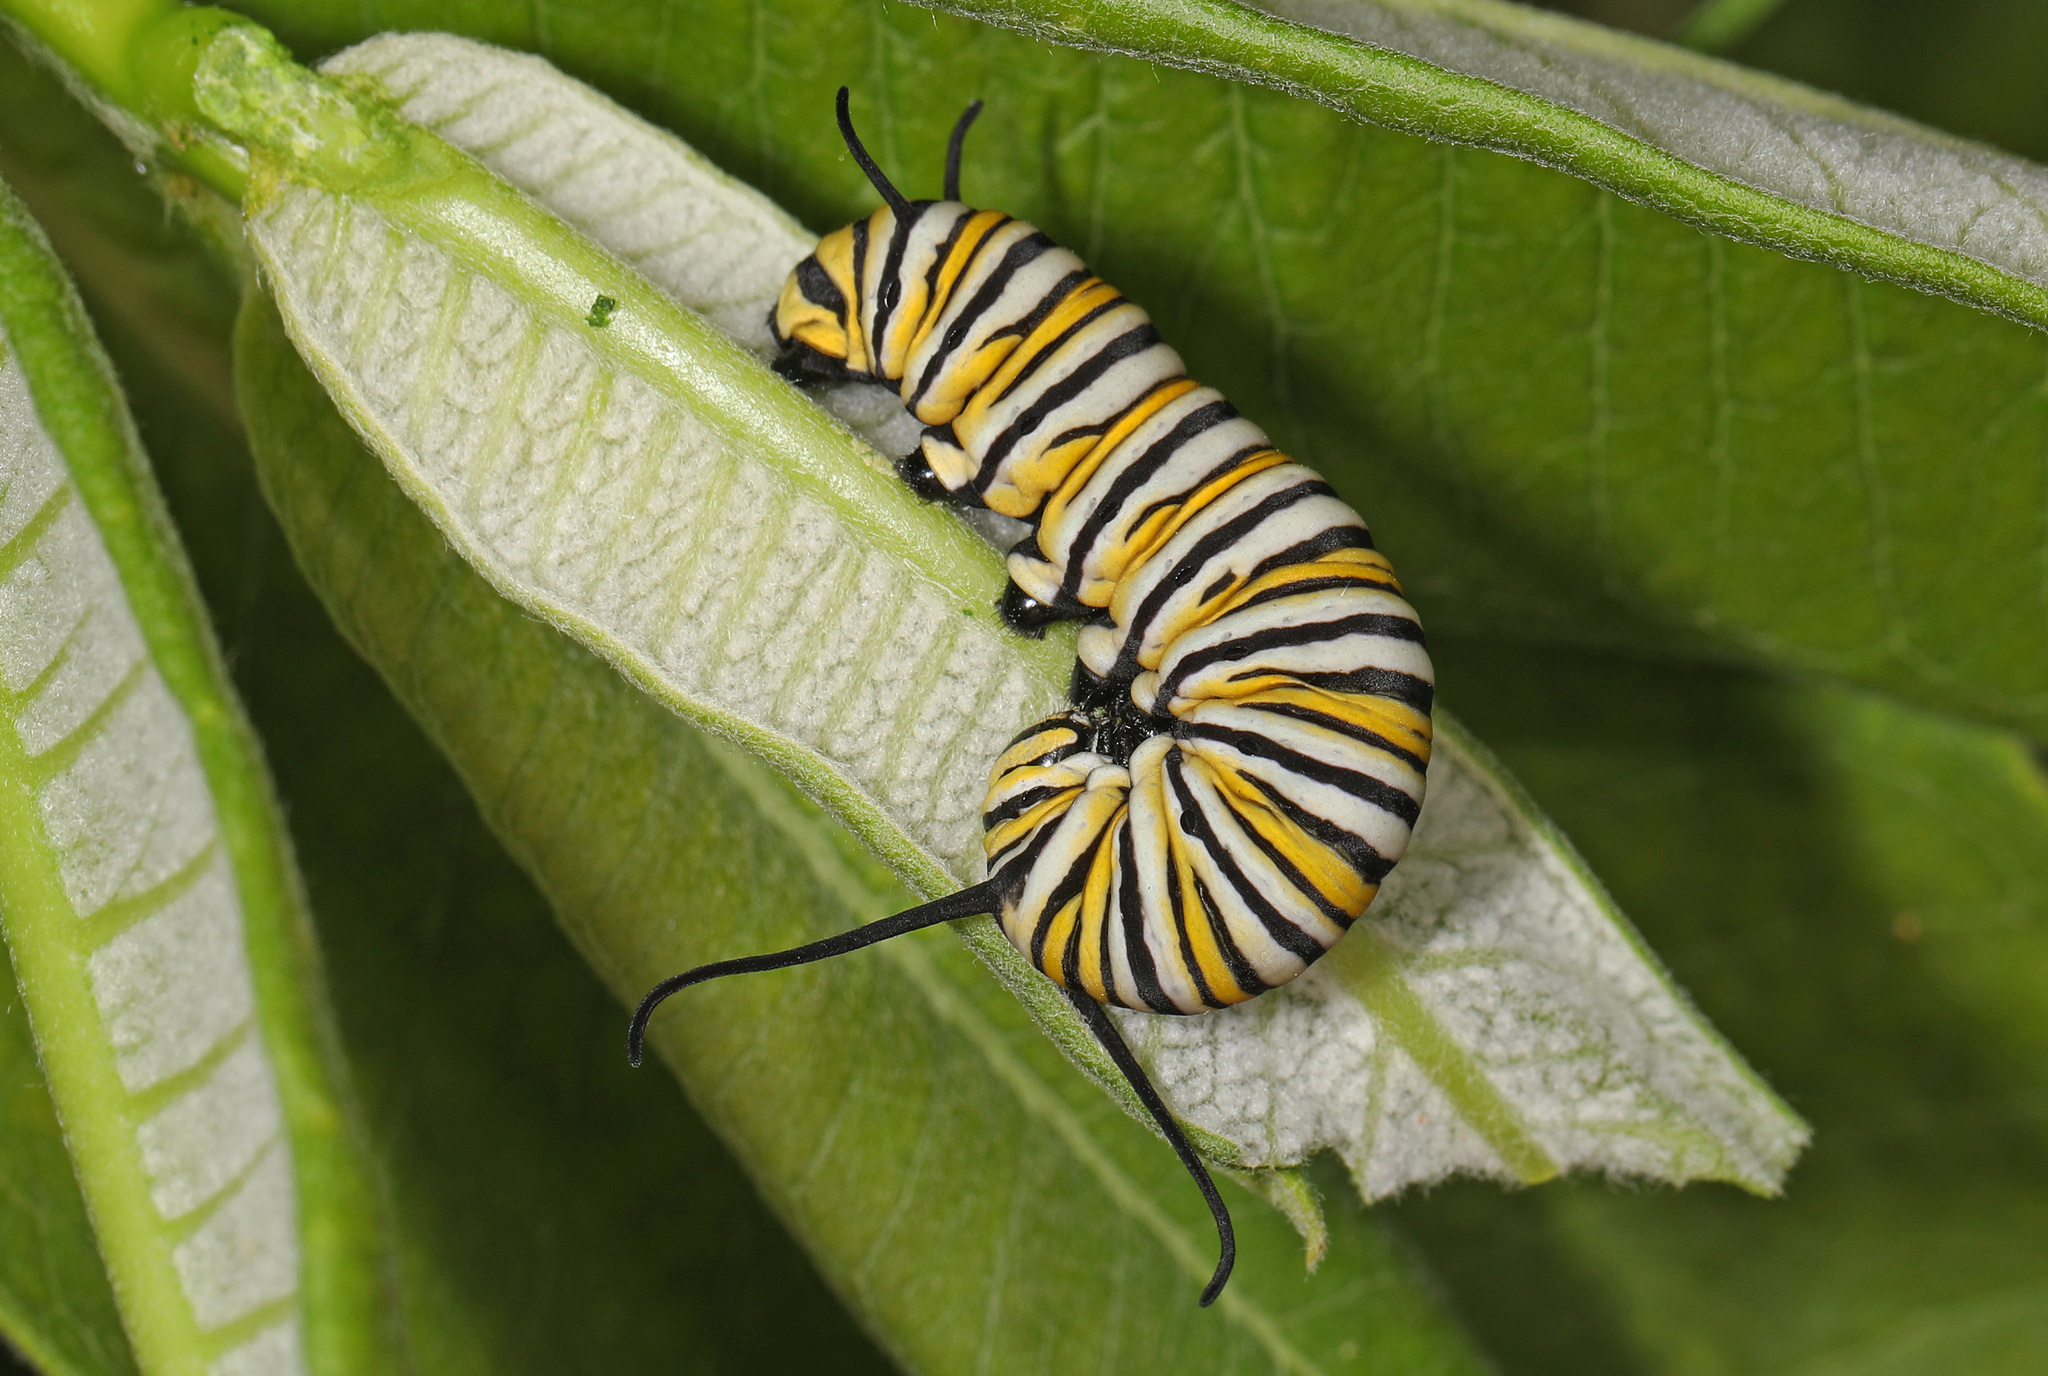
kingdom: Animalia
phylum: Arthropoda
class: Insecta
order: Lepidoptera
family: Nymphalidae
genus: Danaus
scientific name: Danaus plexippus
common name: Monarch
